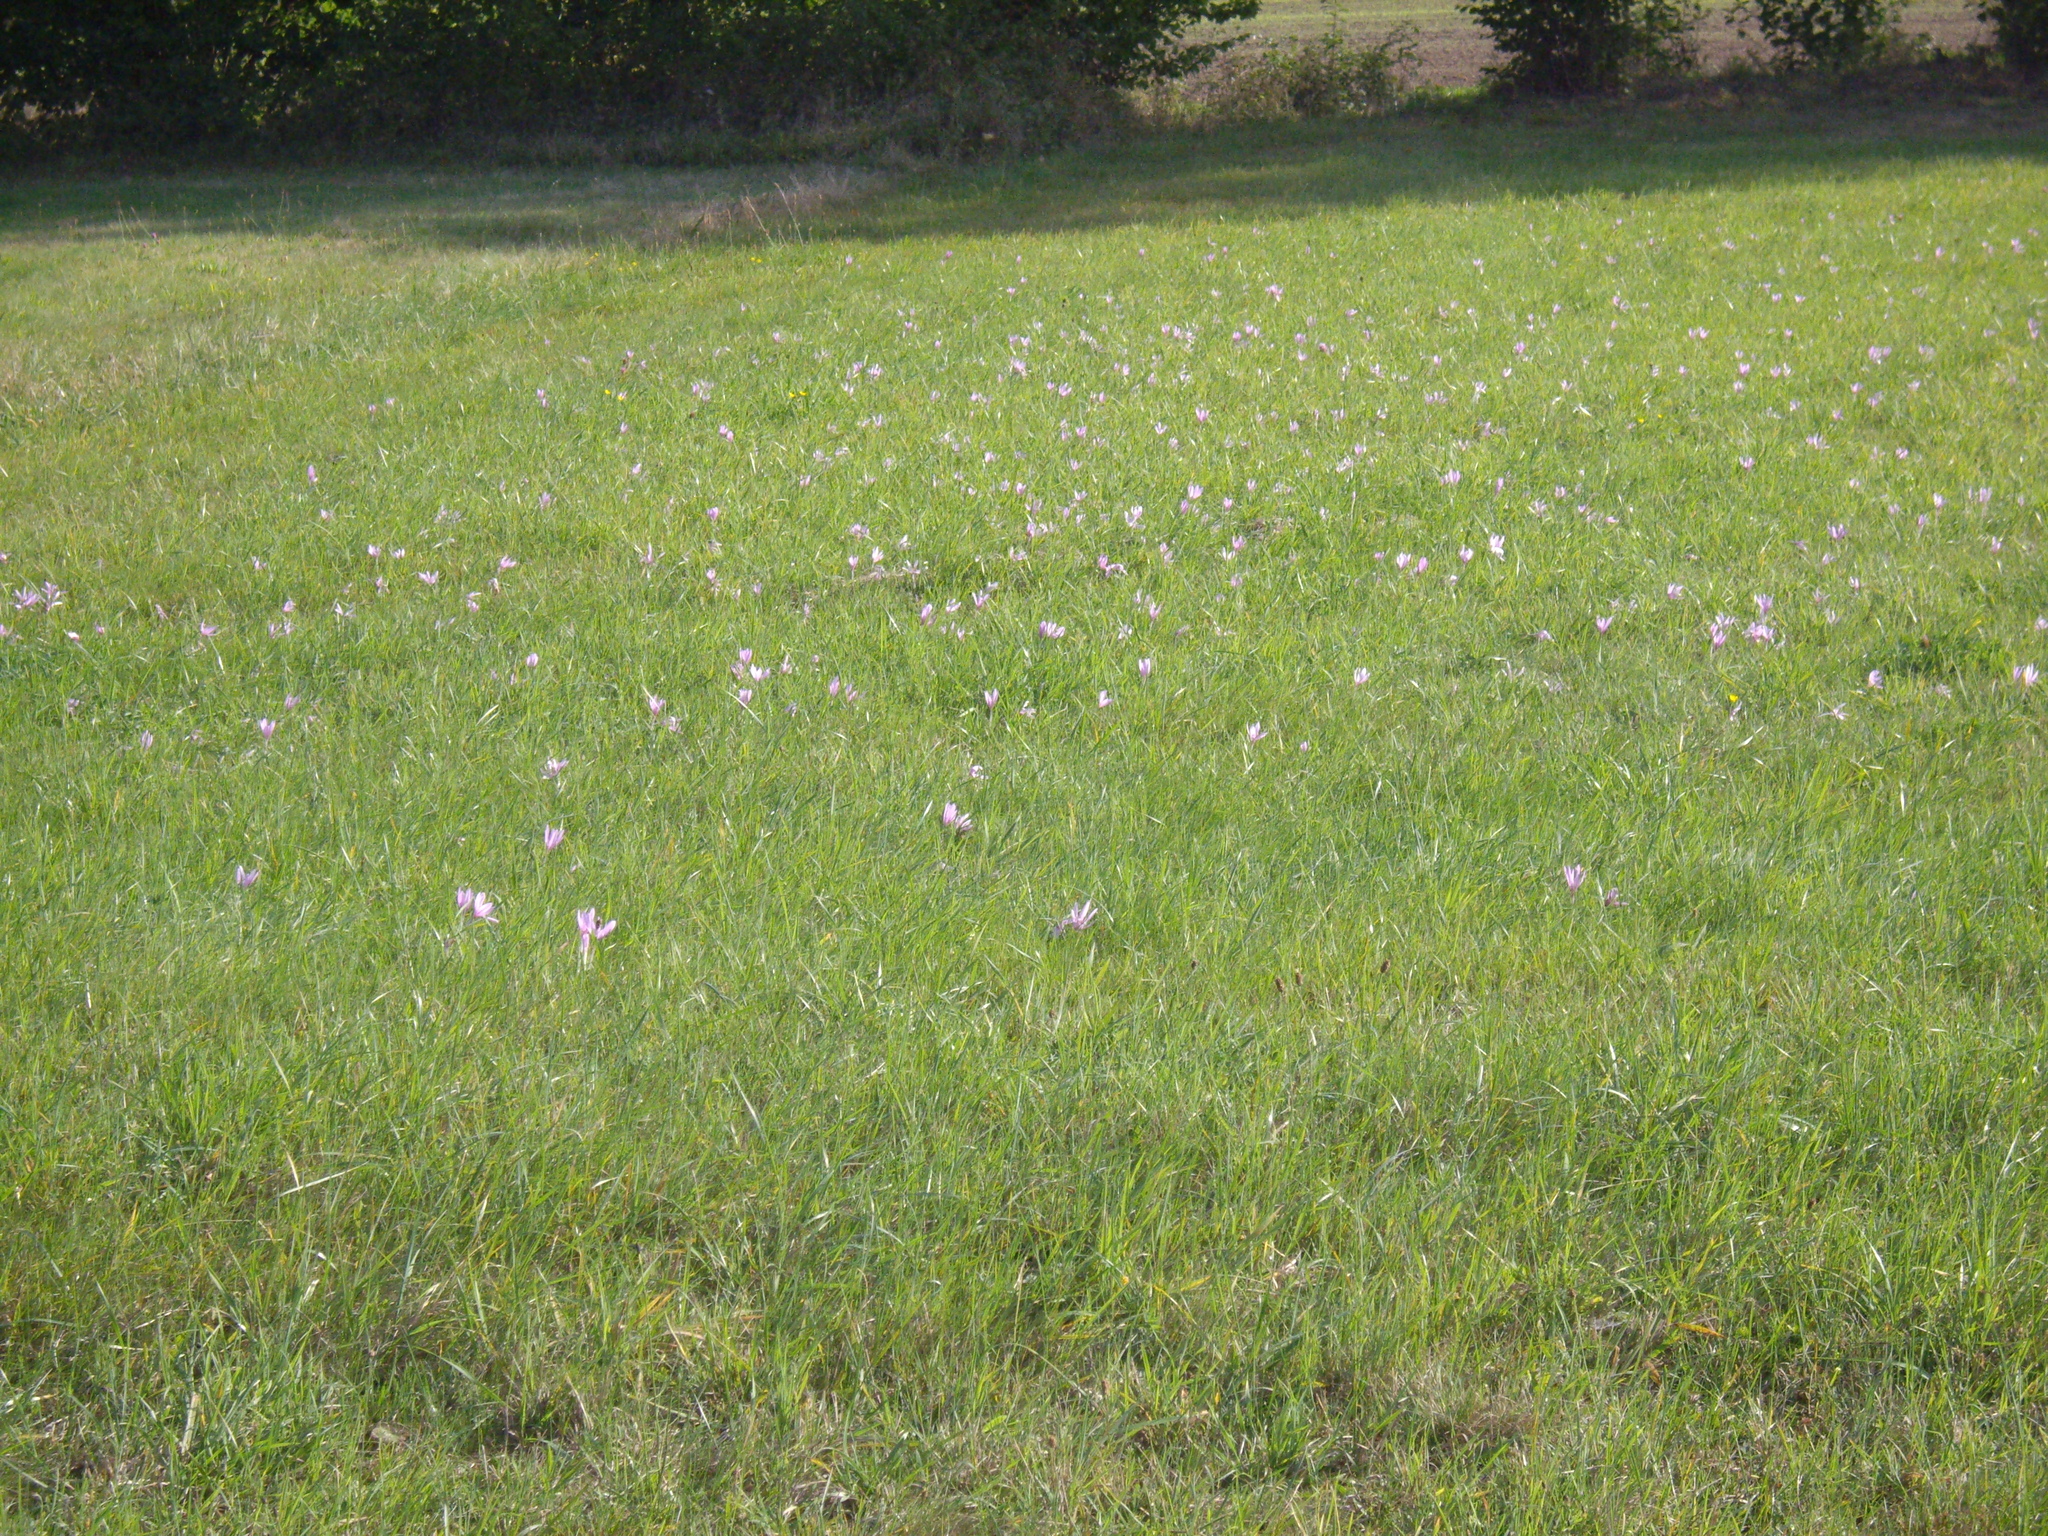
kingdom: Plantae
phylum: Tracheophyta
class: Liliopsida
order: Liliales
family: Colchicaceae
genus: Colchicum
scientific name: Colchicum autumnale
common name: Autumn crocus
